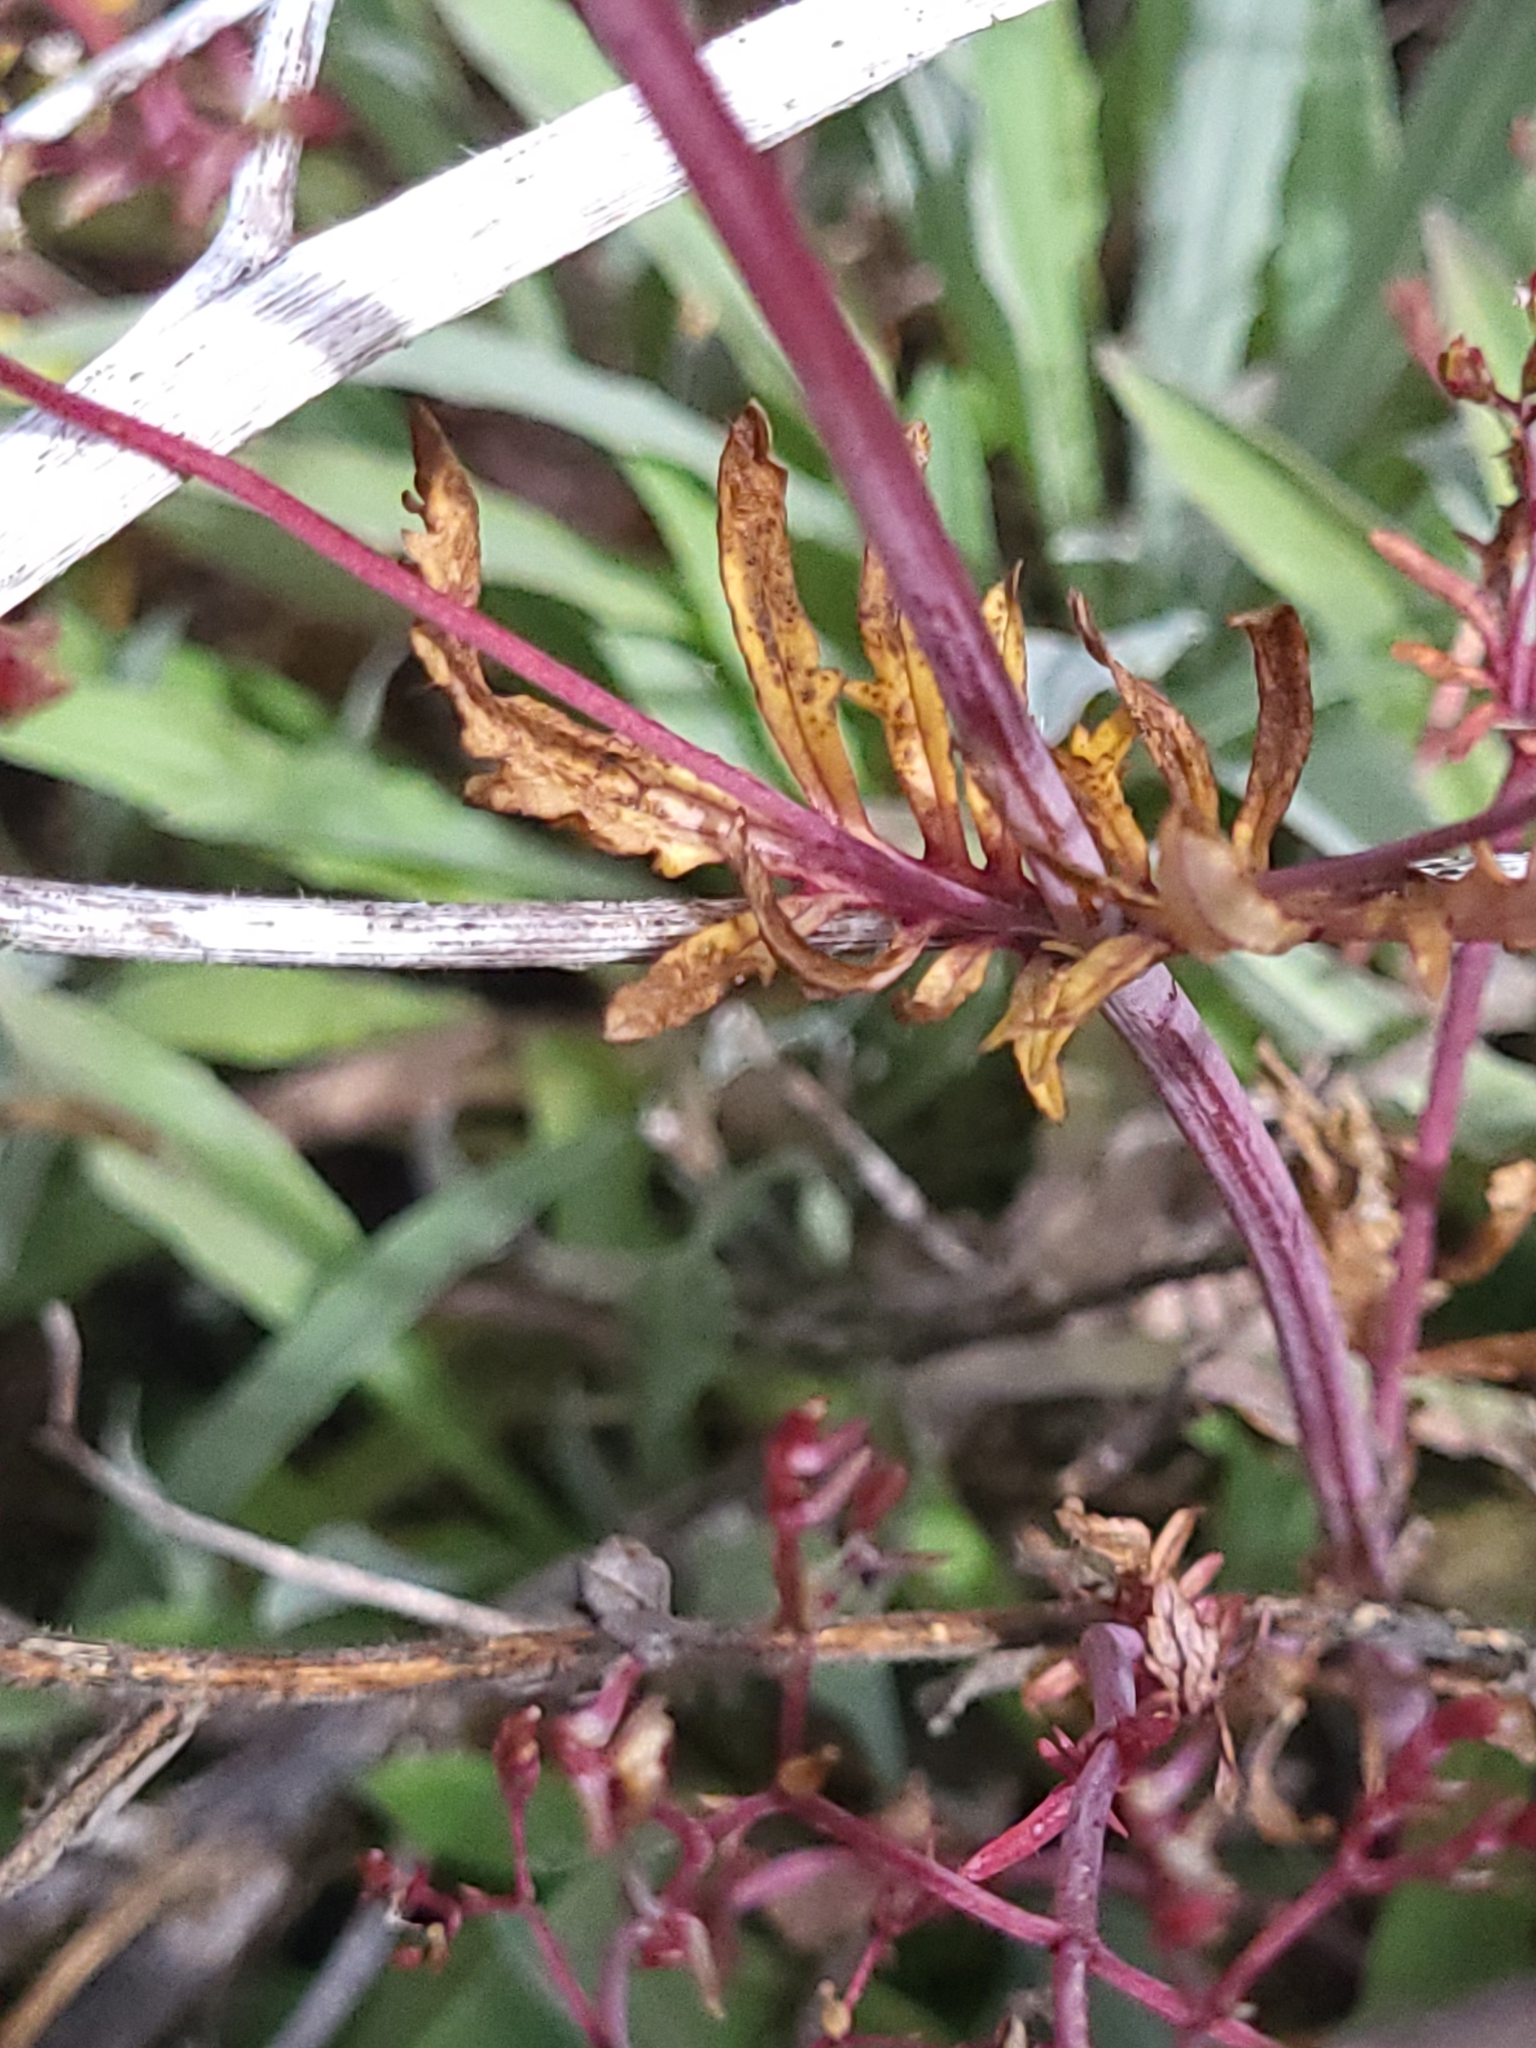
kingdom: Plantae
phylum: Tracheophyta
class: Magnoliopsida
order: Dipsacales
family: Caprifoliaceae
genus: Centranthus
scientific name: Centranthus calcitrapae
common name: Annual valerian
